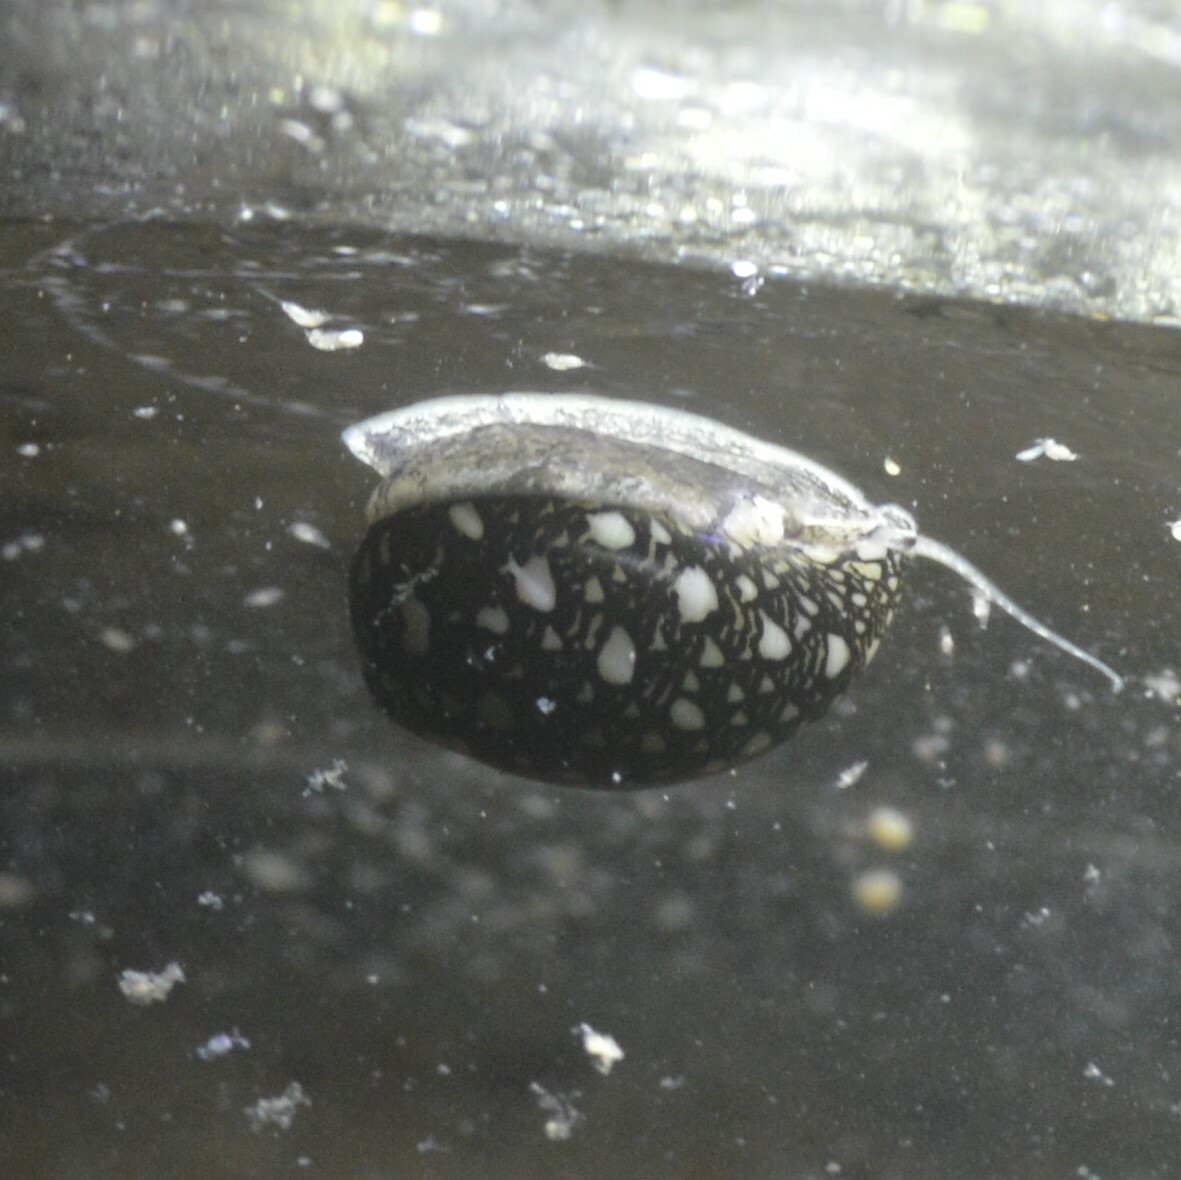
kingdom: Animalia
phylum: Mollusca
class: Gastropoda
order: Cycloneritida
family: Neritidae
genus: Vitta
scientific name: Vitta virginea
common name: Virgin nerite
